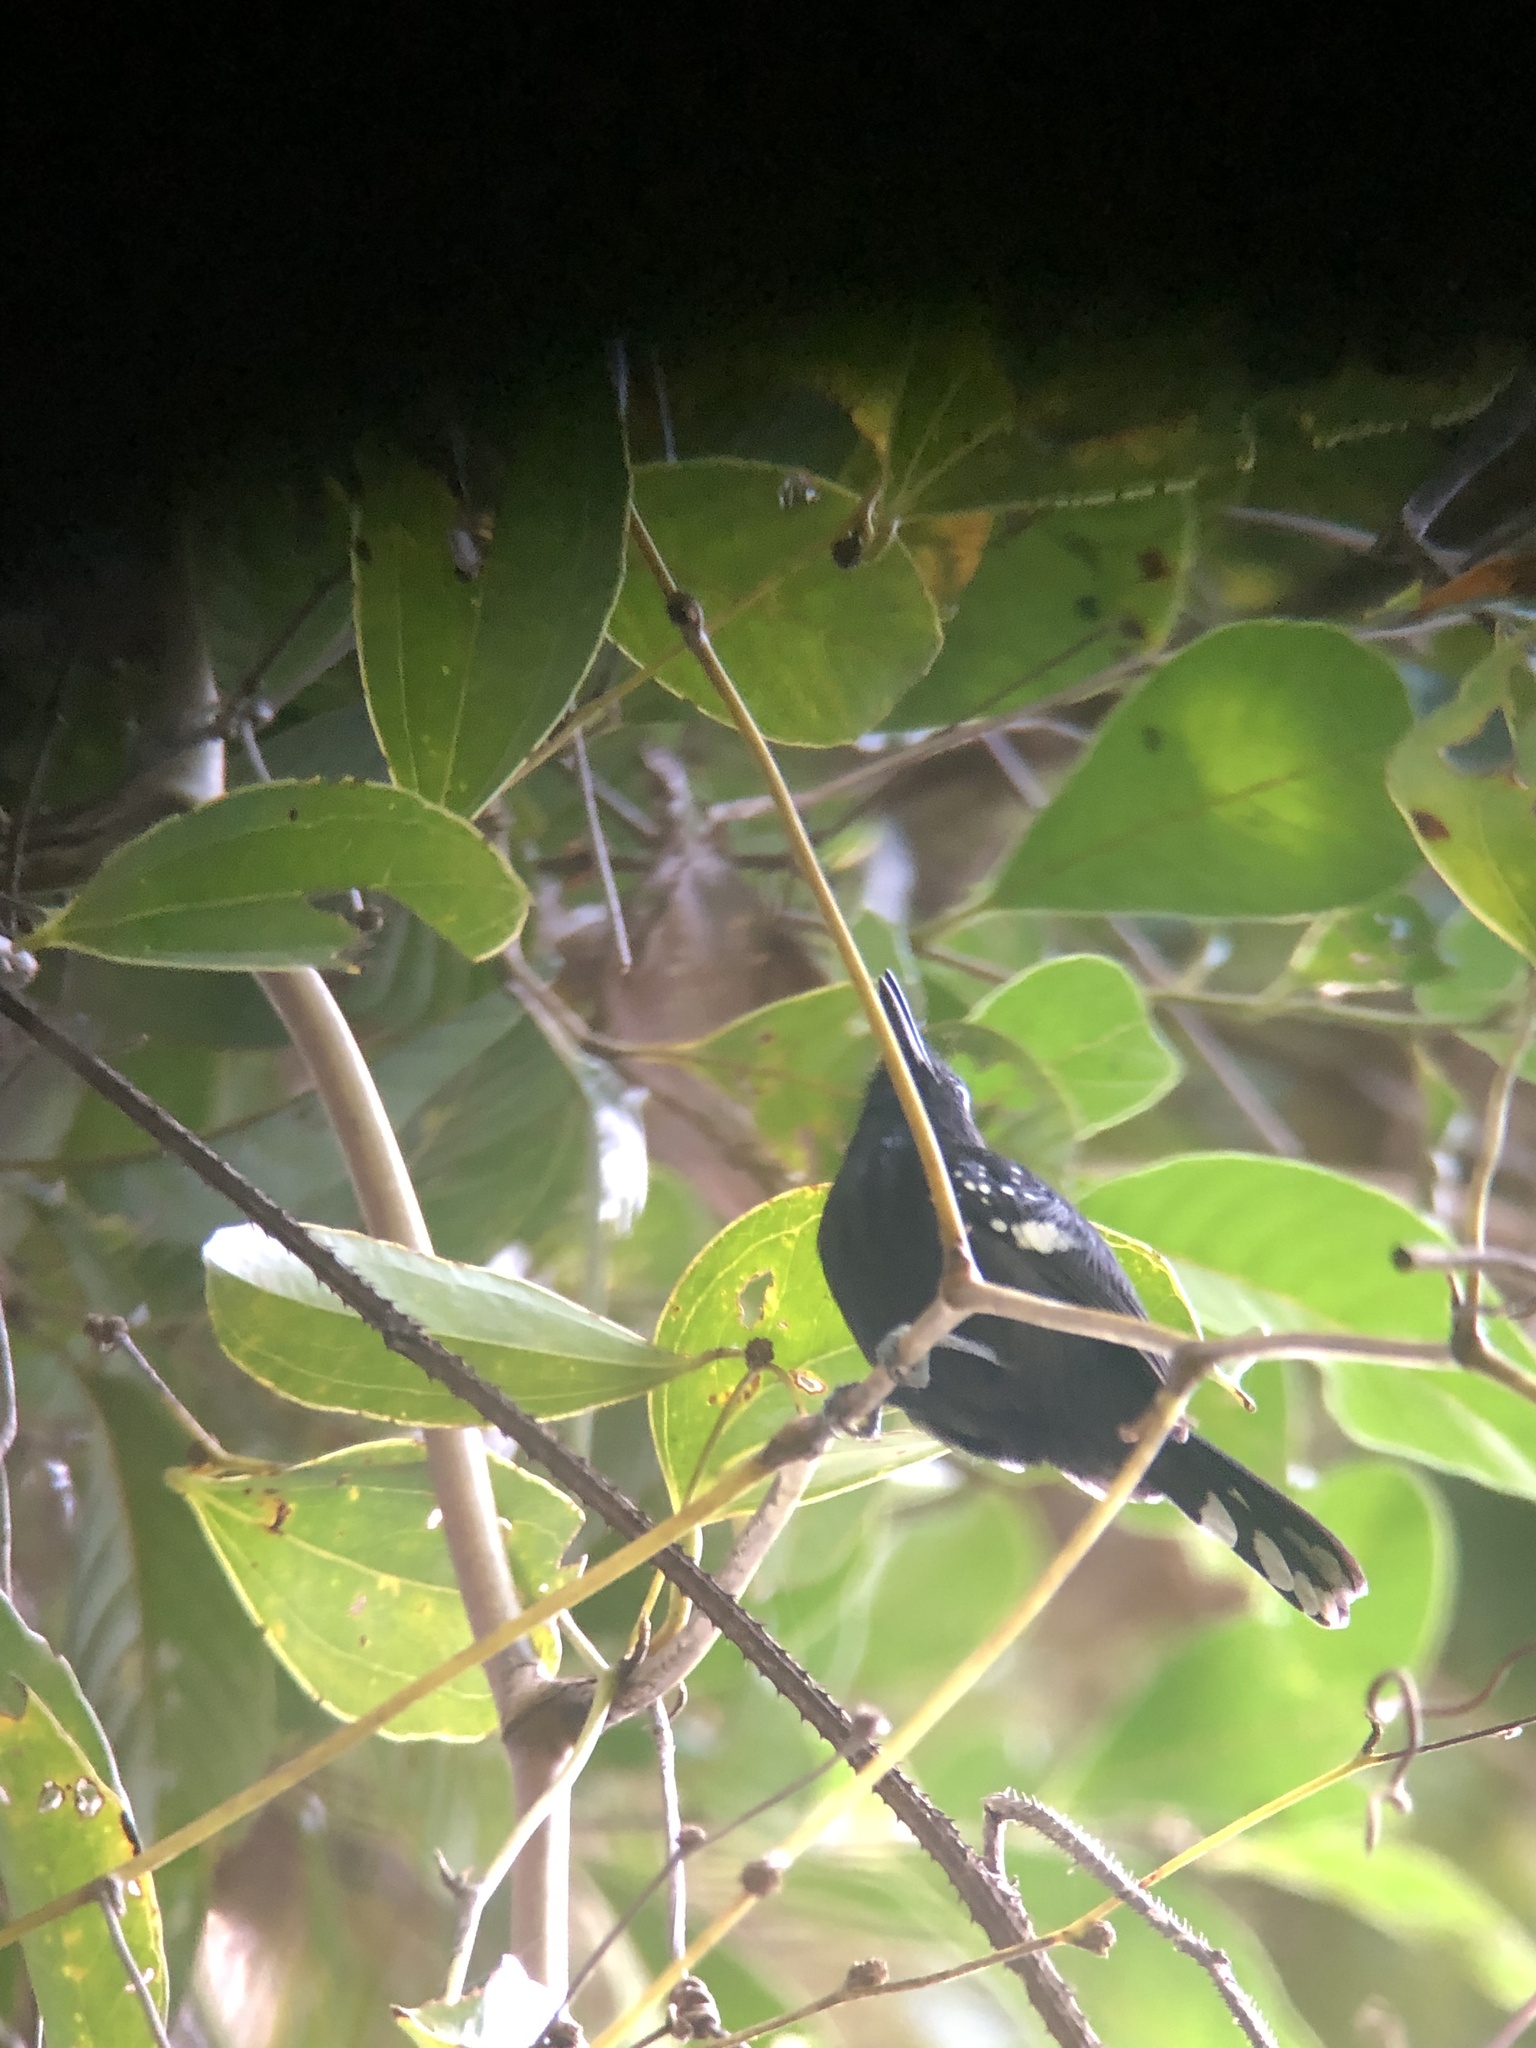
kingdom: Animalia
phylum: Chordata
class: Aves
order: Passeriformes
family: Thamnophilidae
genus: Microrhopias
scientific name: Microrhopias quixensis
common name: Dot-winged antwren
